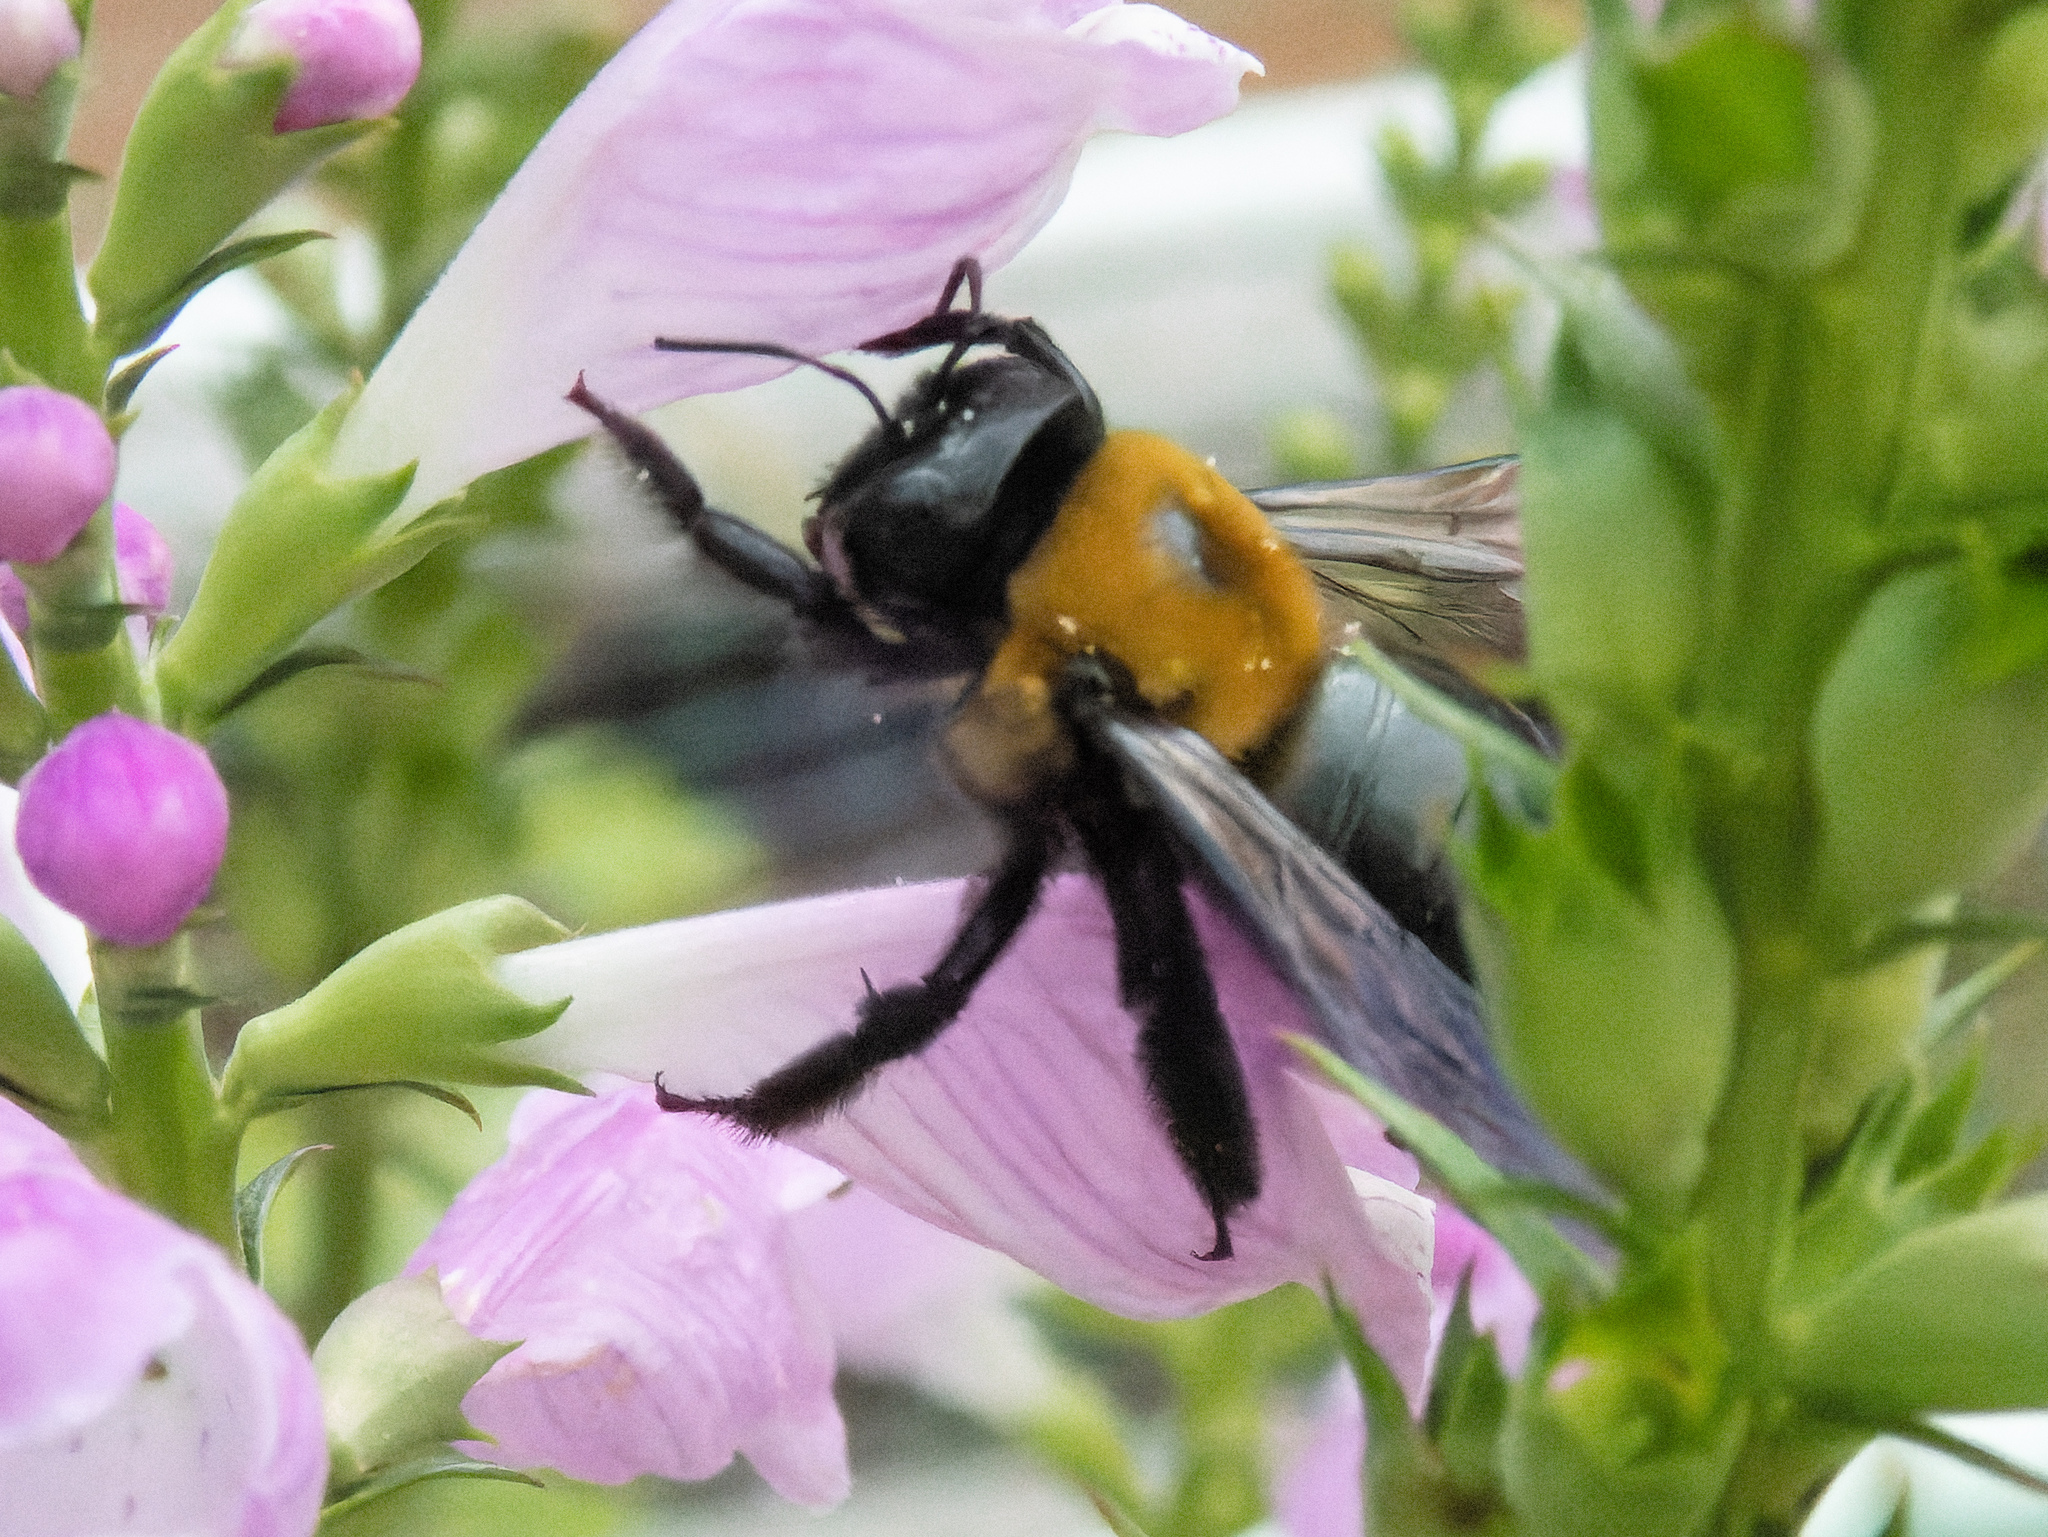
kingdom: Animalia
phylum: Arthropoda
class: Insecta
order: Hymenoptera
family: Apidae
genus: Xylocopa
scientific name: Xylocopa virginica
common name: Carpenter bee
